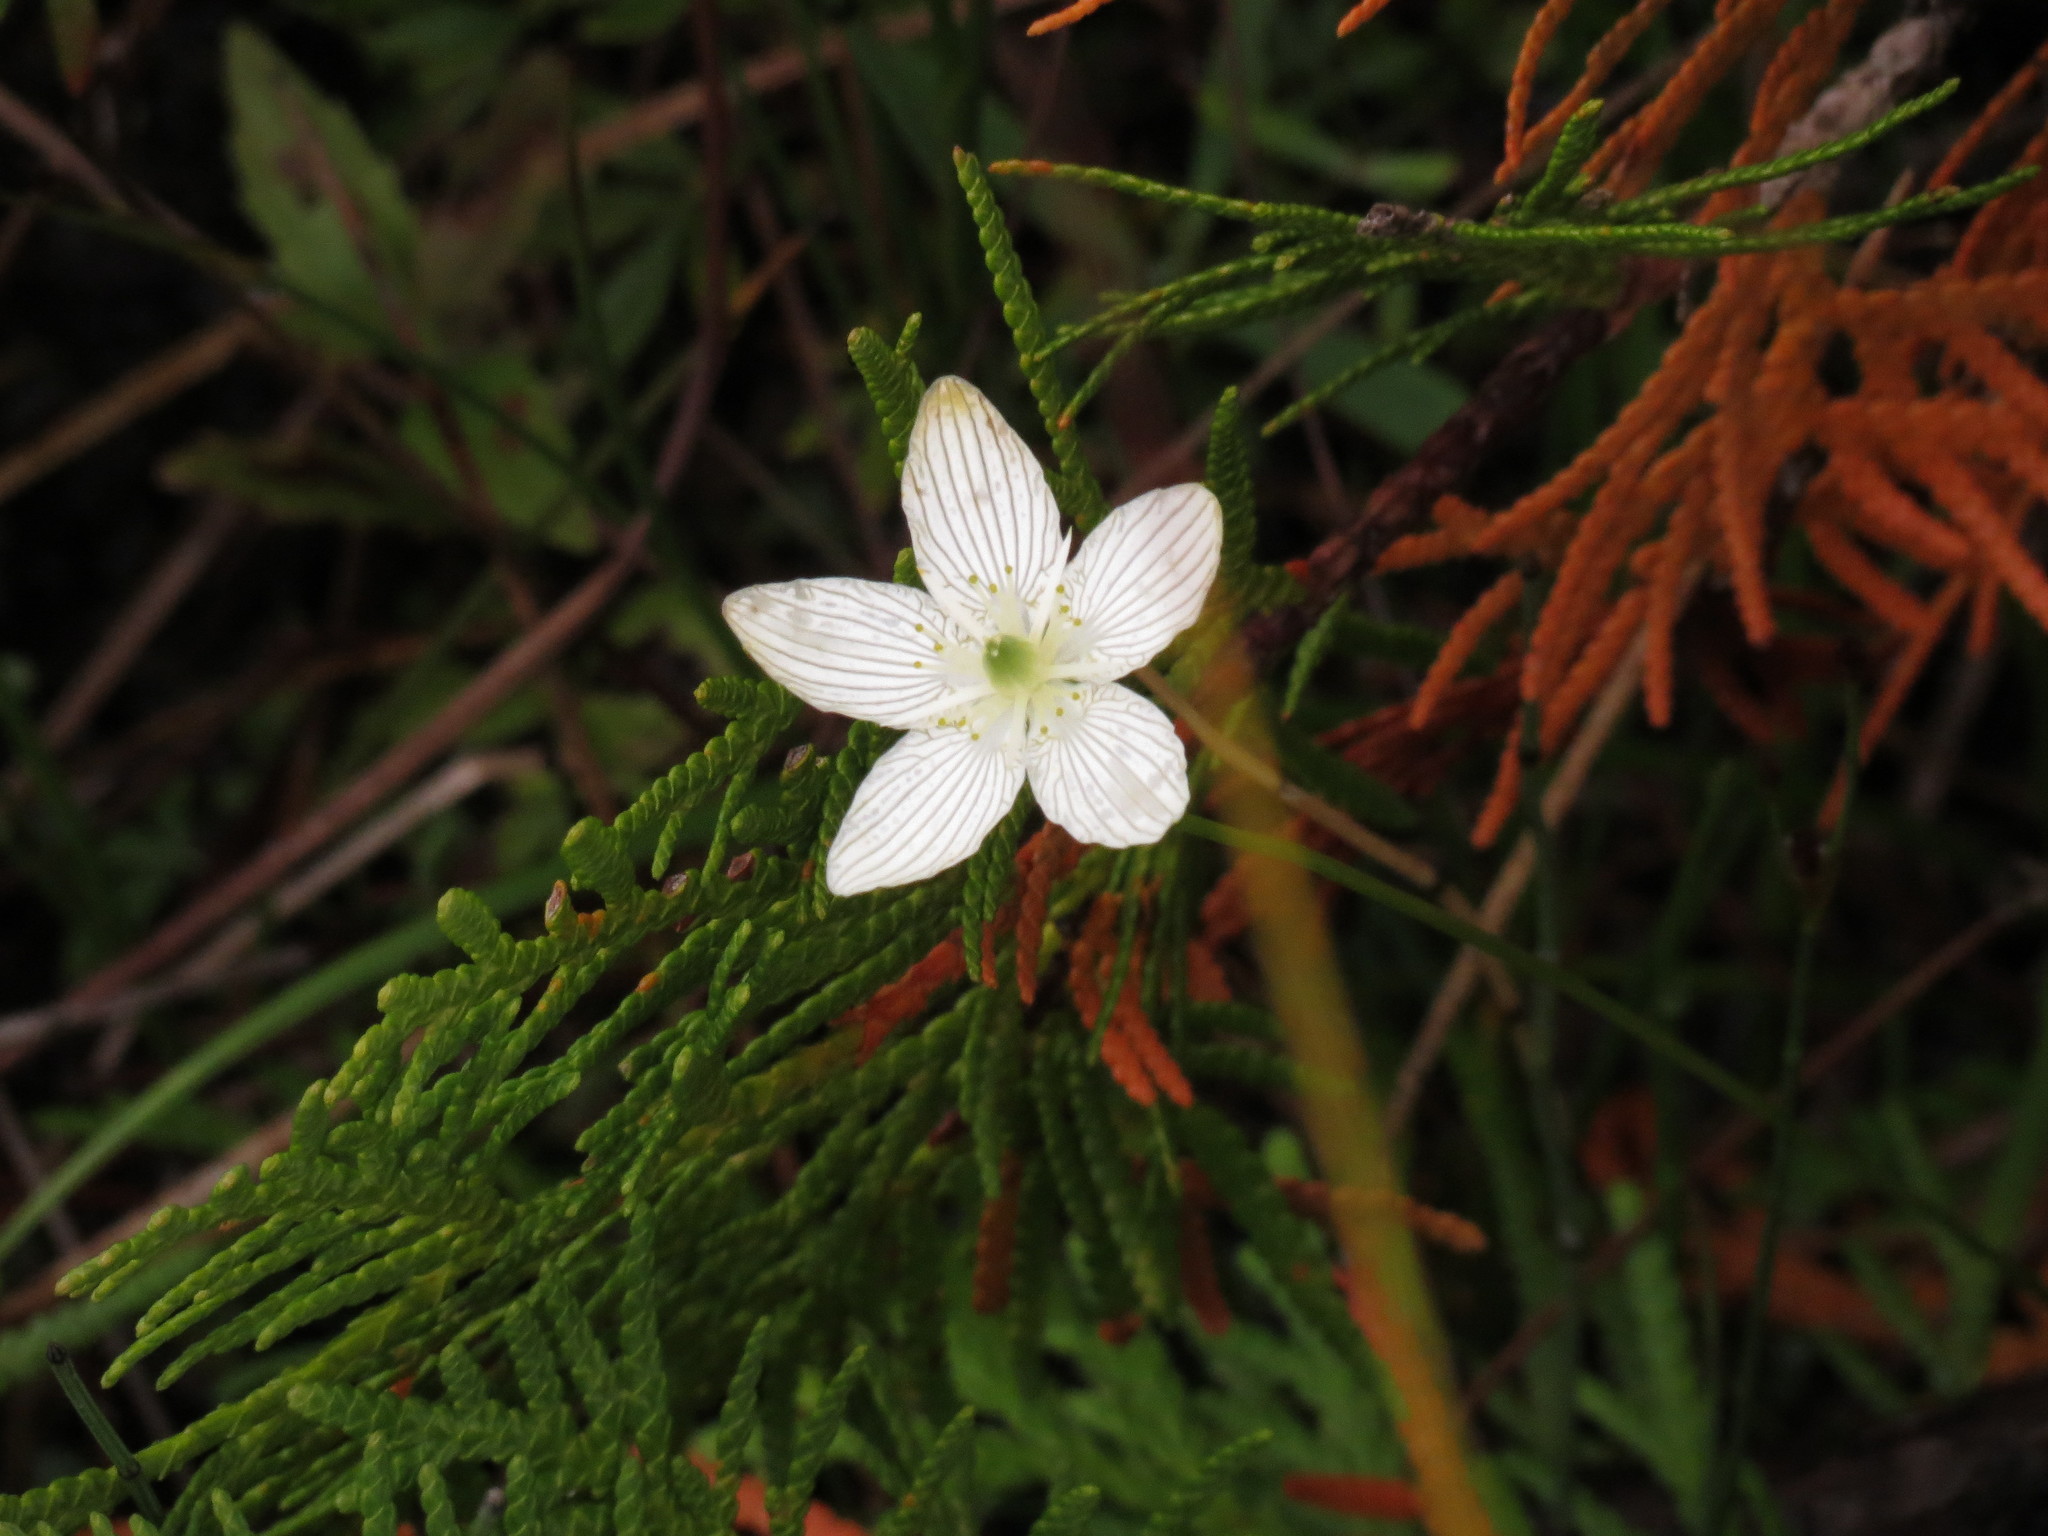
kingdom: Plantae
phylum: Tracheophyta
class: Magnoliopsida
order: Celastrales
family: Parnassiaceae
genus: Parnassia
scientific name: Parnassia glauca
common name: American grass-of-parnassus
